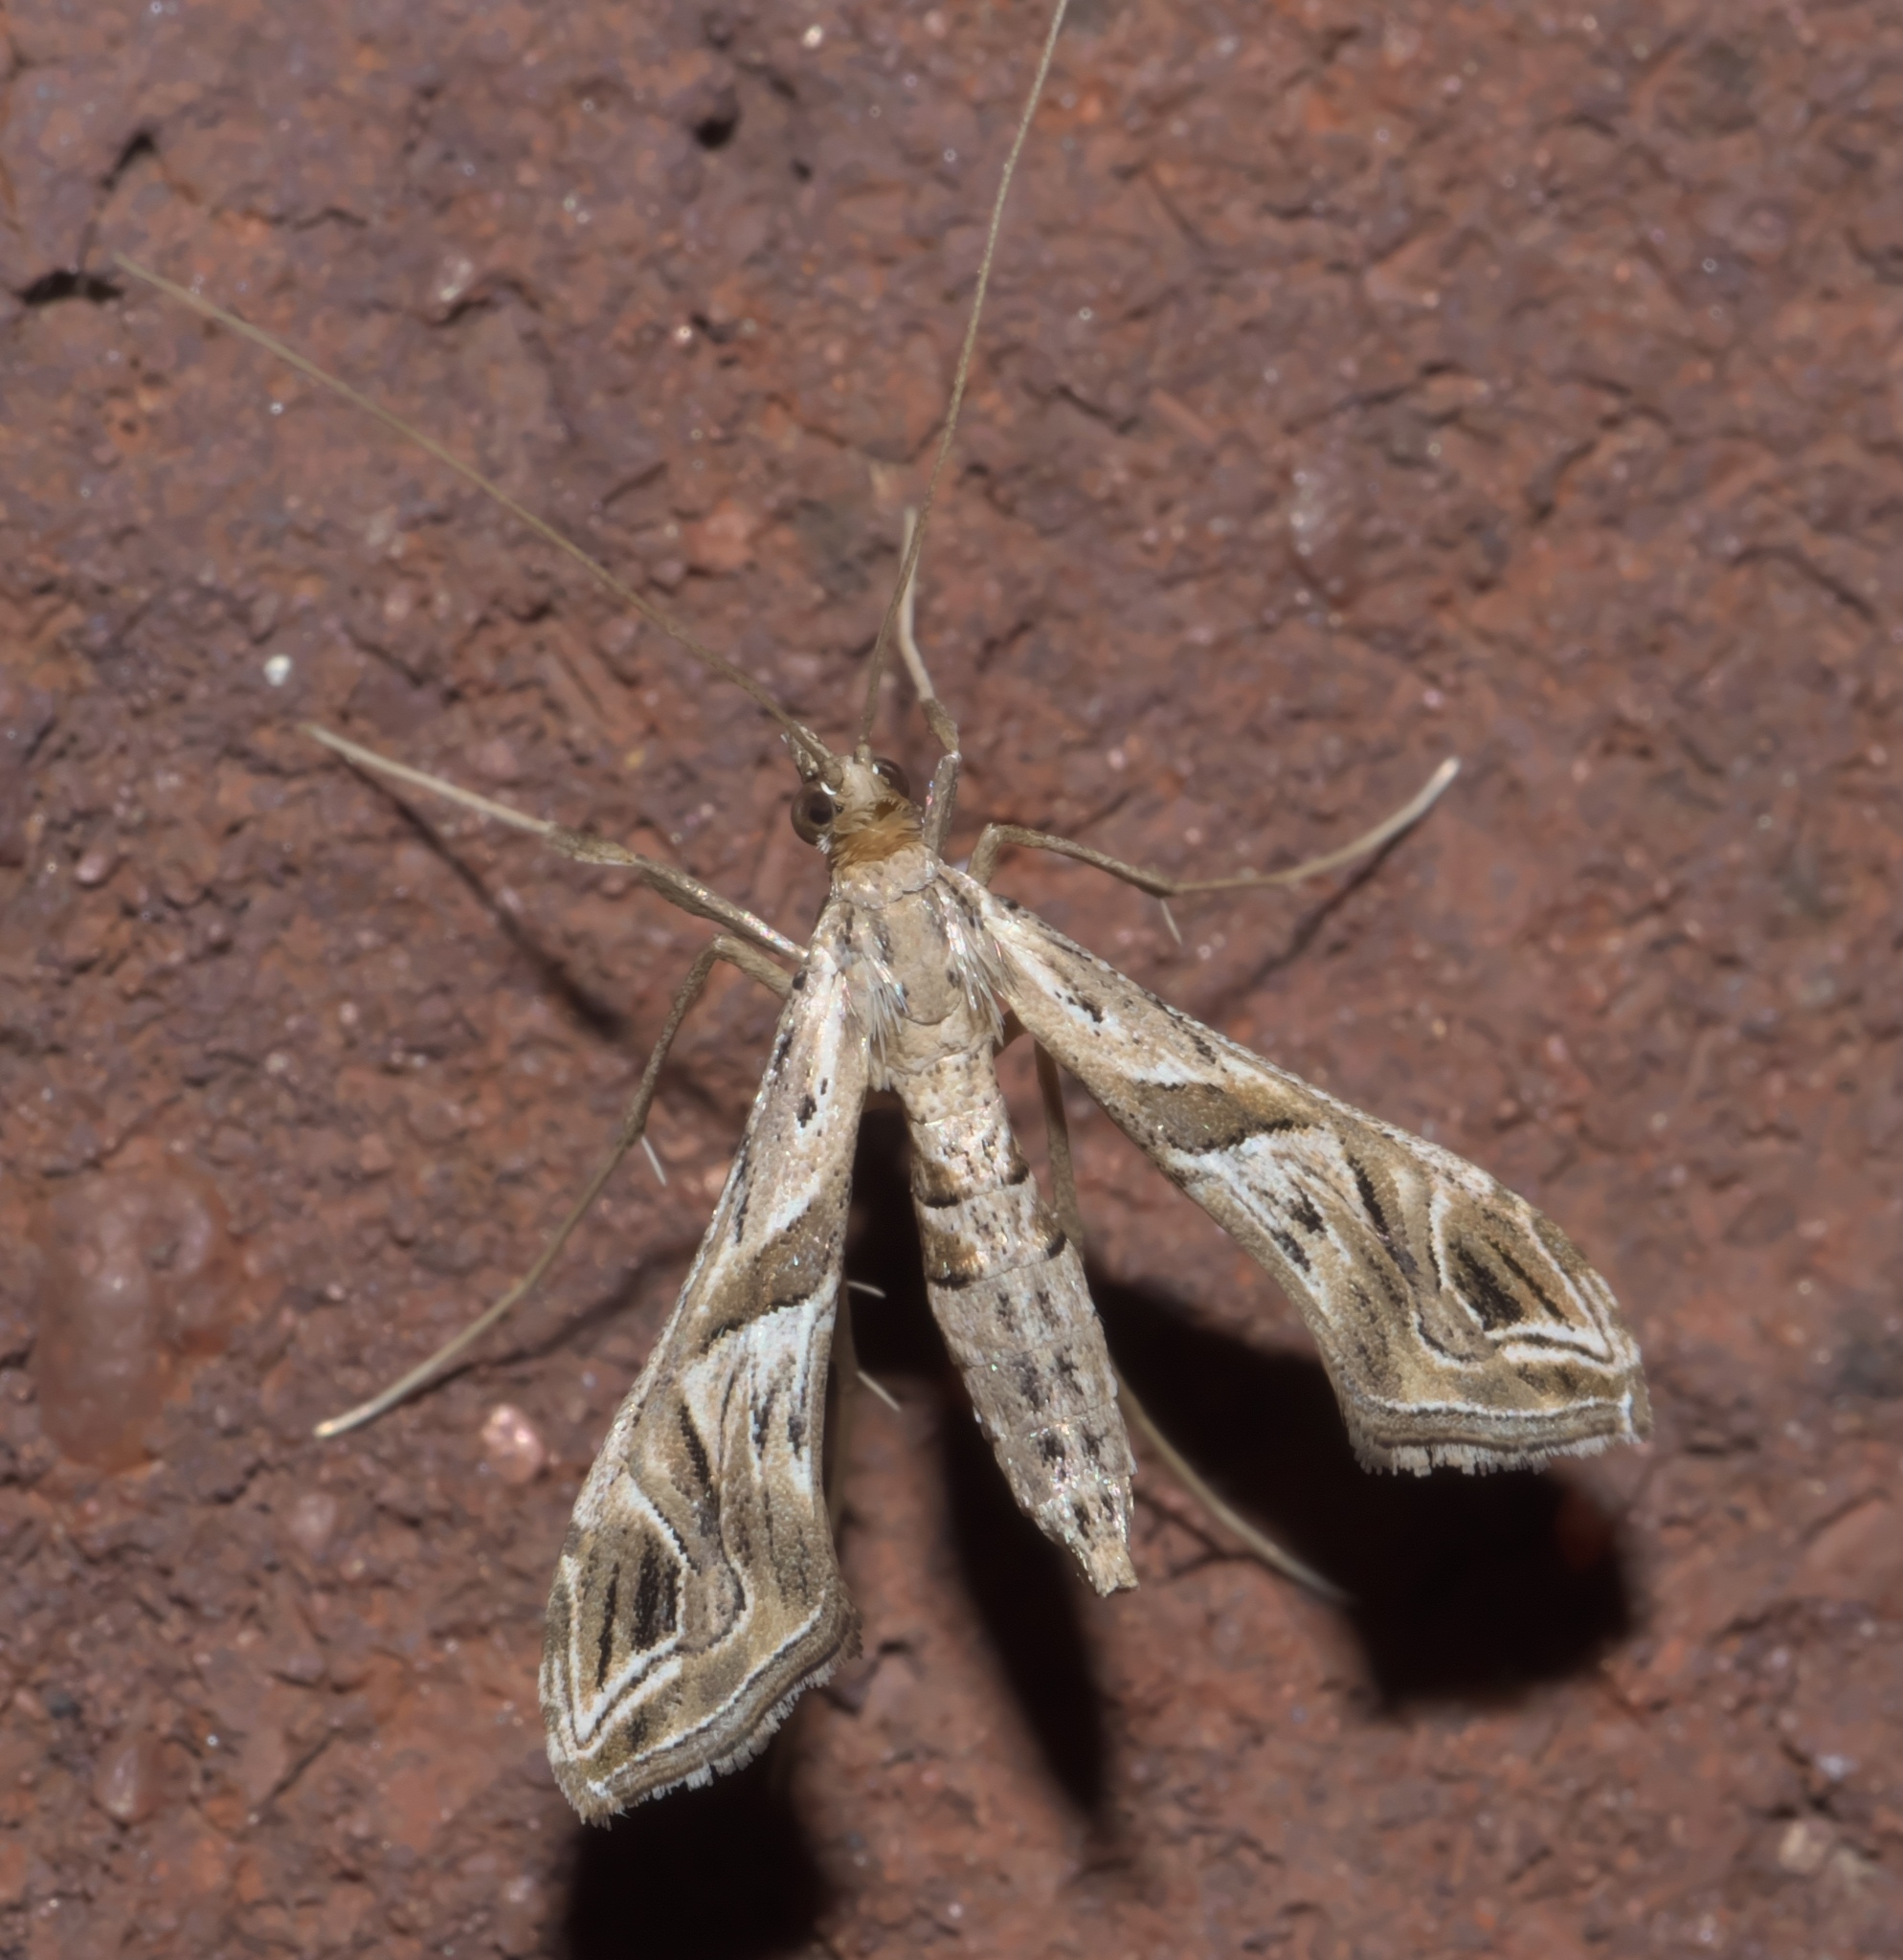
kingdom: Animalia
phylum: Arthropoda
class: Insecta
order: Lepidoptera
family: Crambidae
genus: Lineodes
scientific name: Lineodes integra
